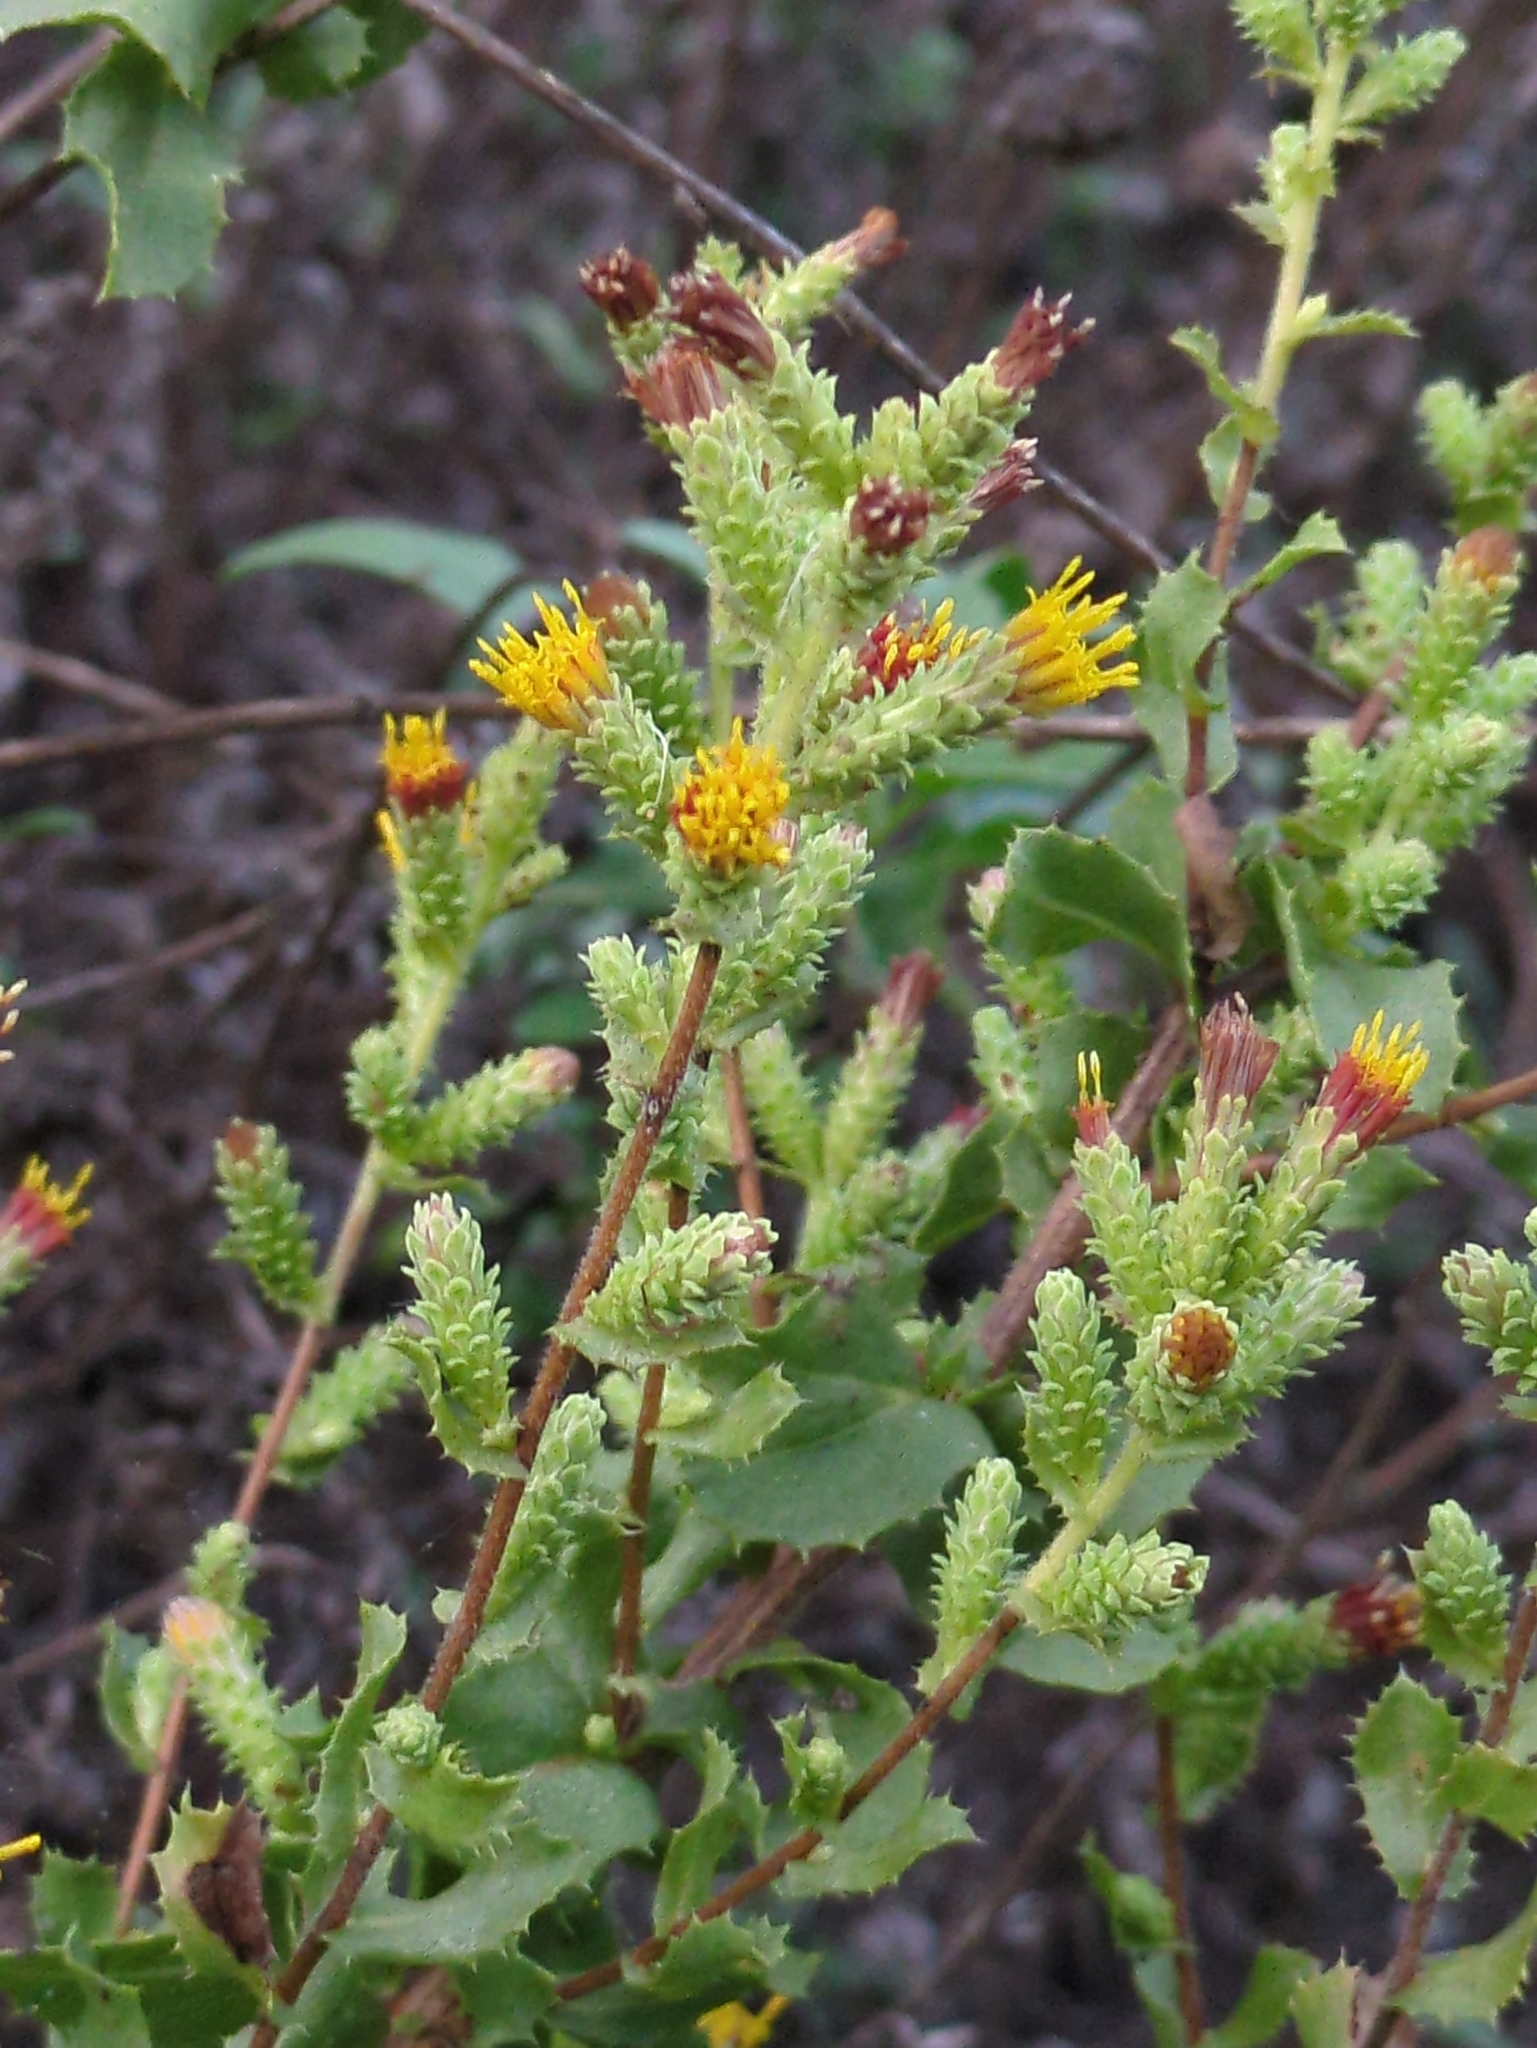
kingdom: Plantae
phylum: Tracheophyta
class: Magnoliopsida
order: Asterales
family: Asteraceae
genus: Hazardia
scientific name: Hazardia squarrosa
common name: Saw-tooth goldenbush
